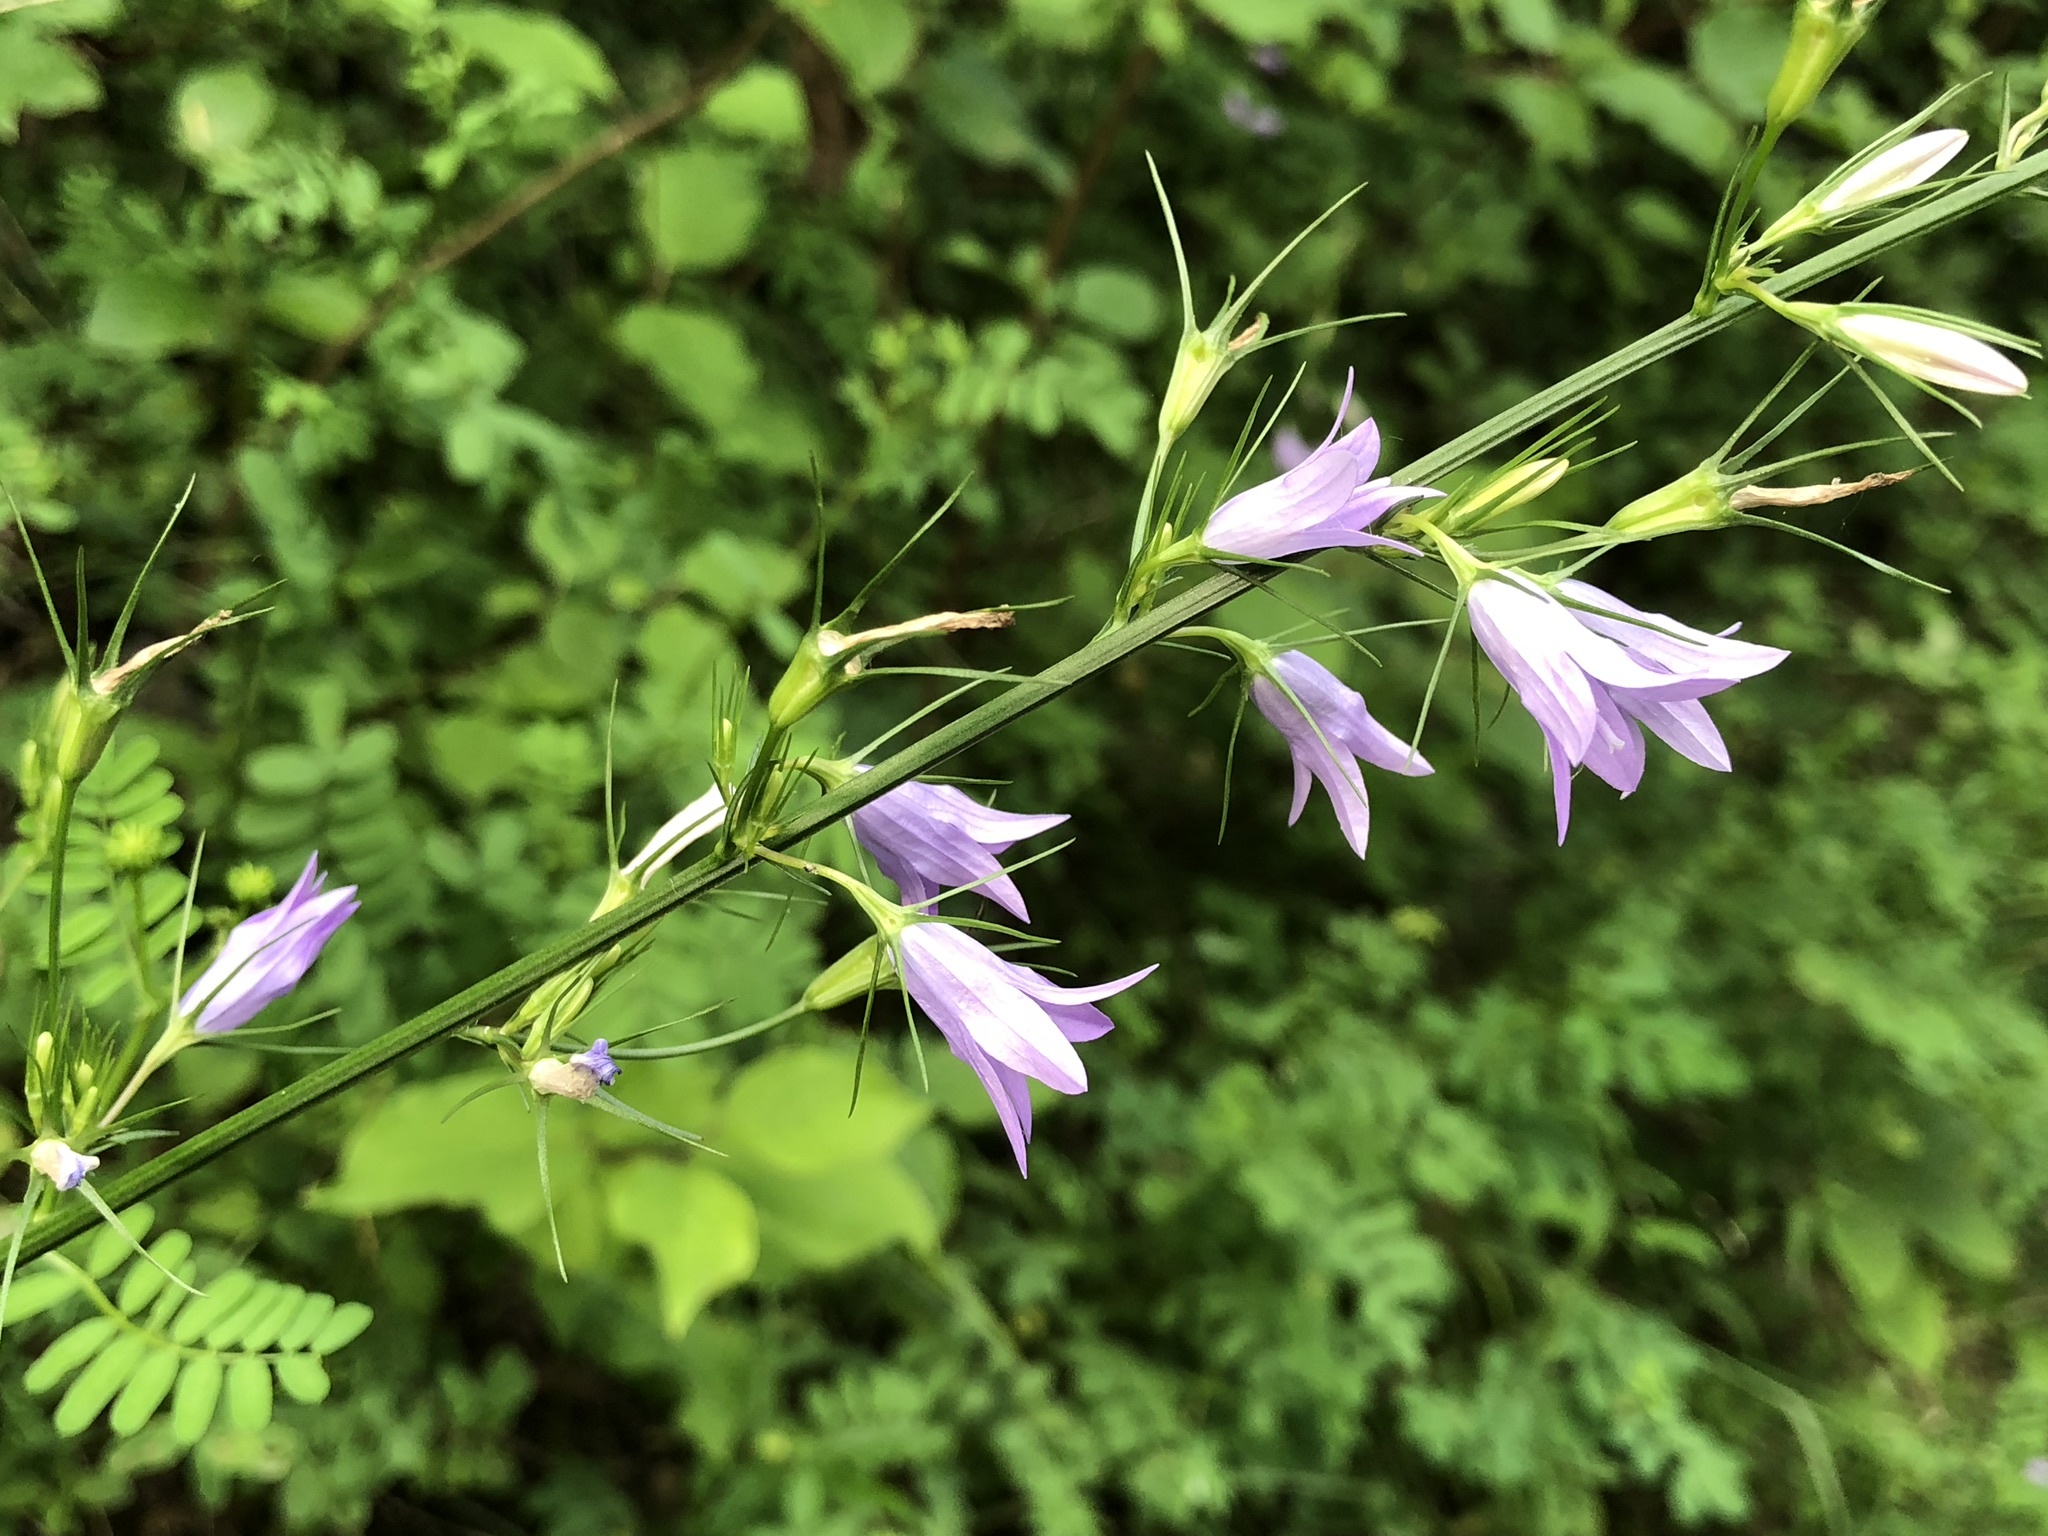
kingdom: Plantae
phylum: Tracheophyta
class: Magnoliopsida
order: Asterales
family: Campanulaceae
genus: Campanula
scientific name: Campanula rapunculus
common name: Rampion bellflower
